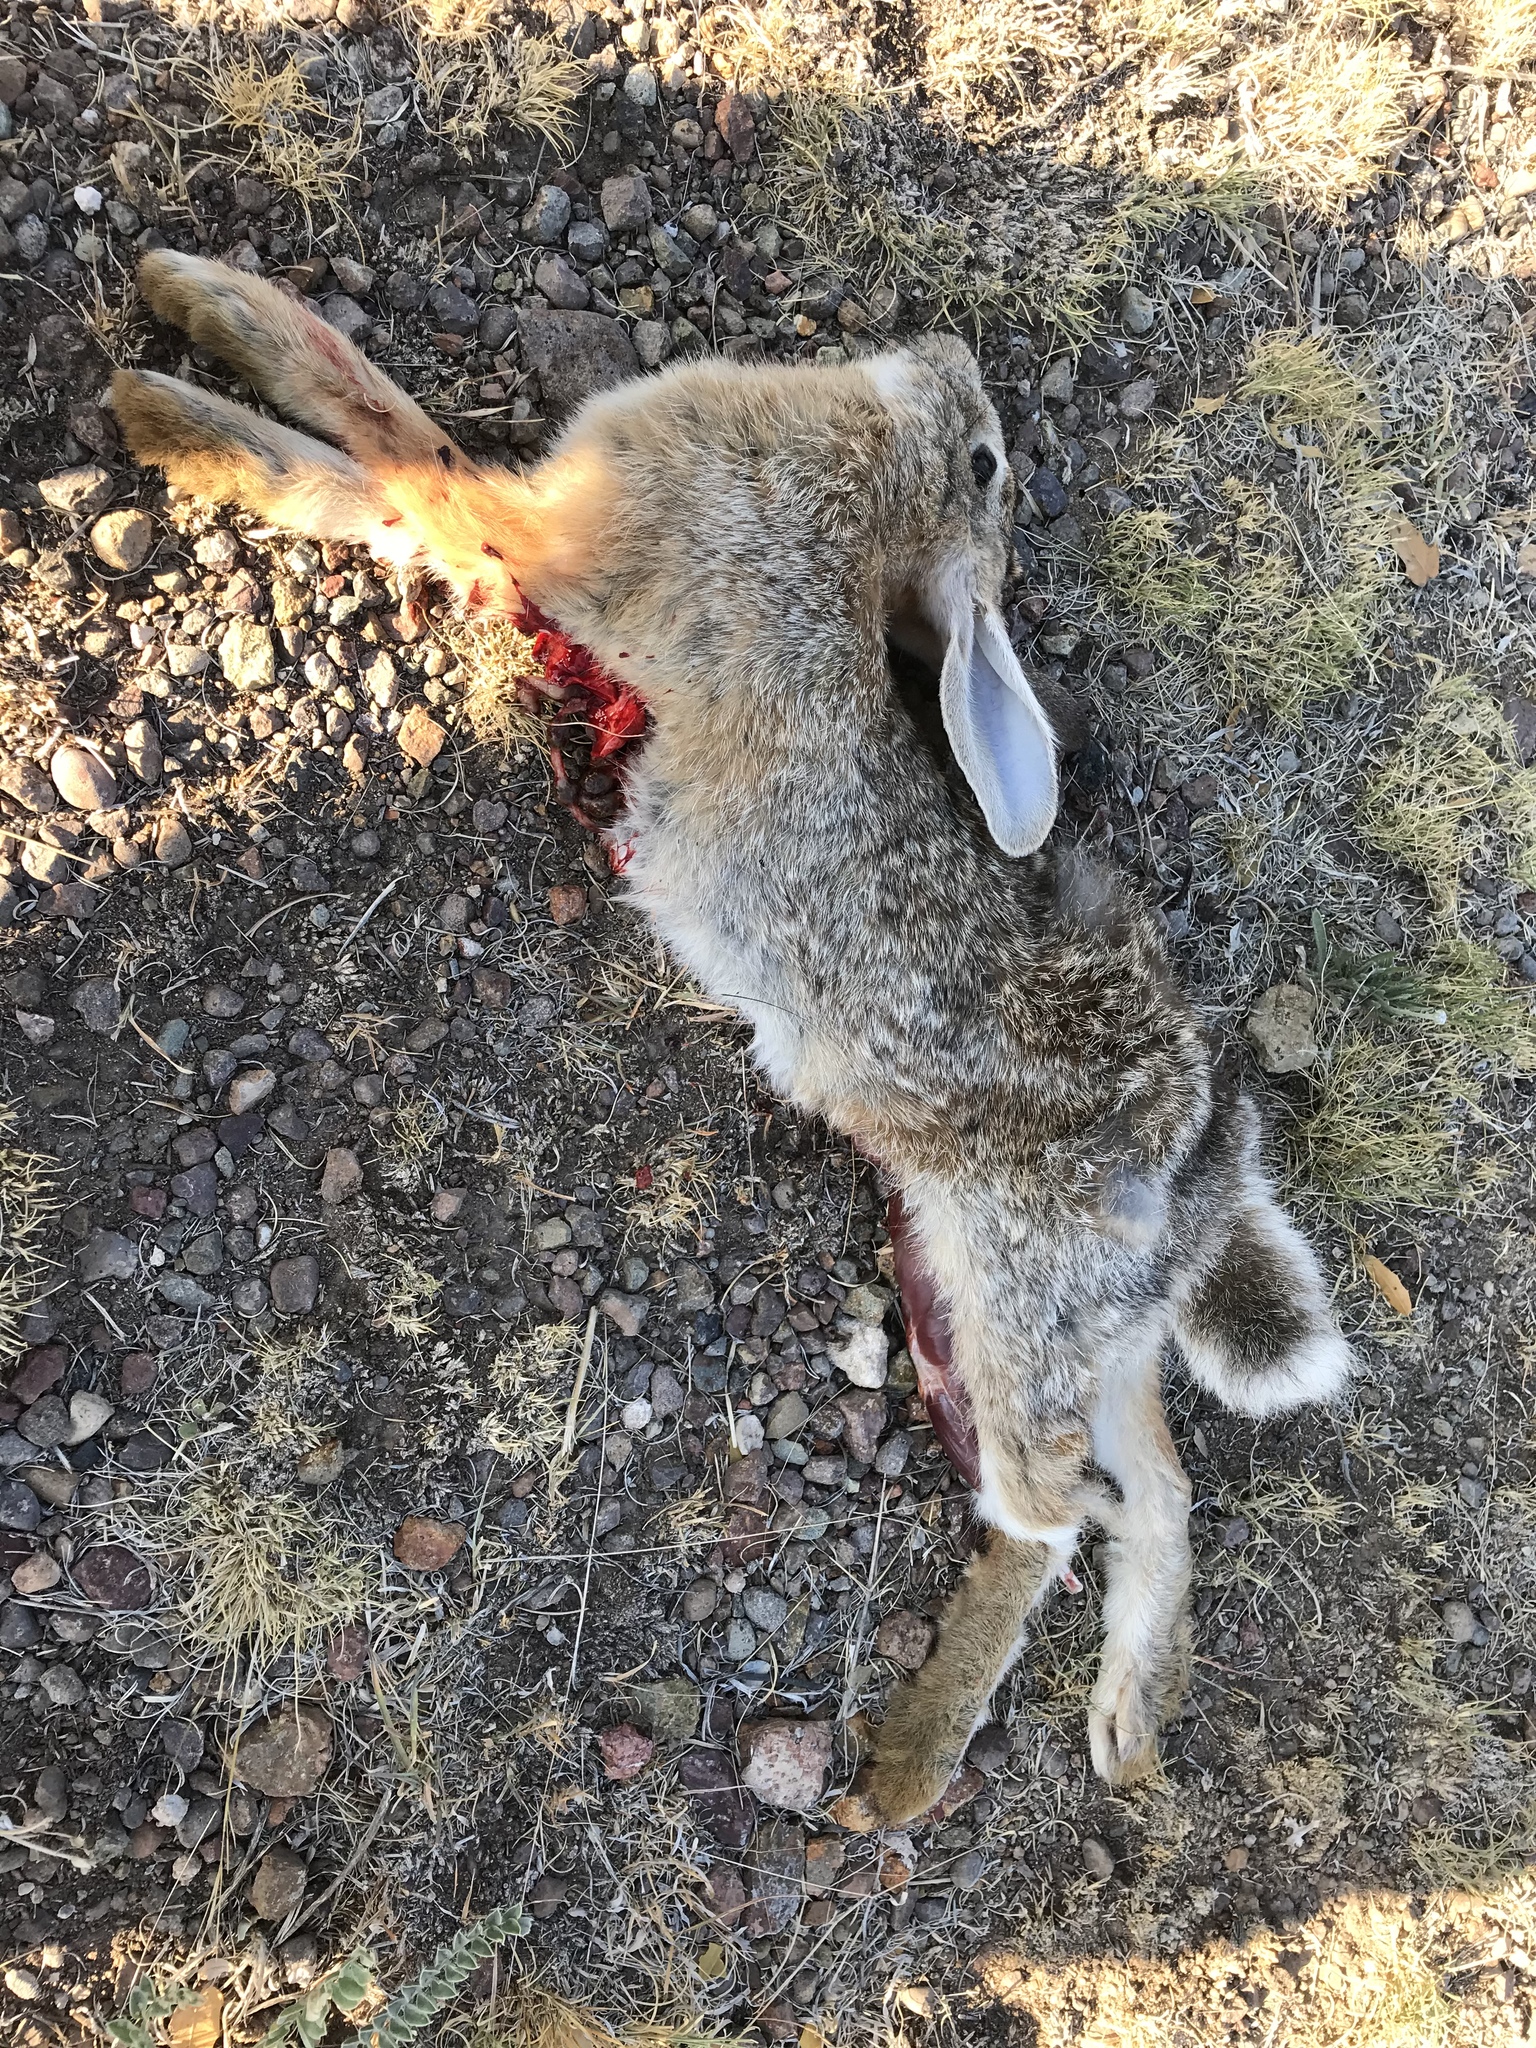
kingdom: Animalia
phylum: Chordata
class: Mammalia
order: Lagomorpha
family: Leporidae
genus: Sylvilagus
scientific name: Sylvilagus audubonii
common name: Desert cottontail
